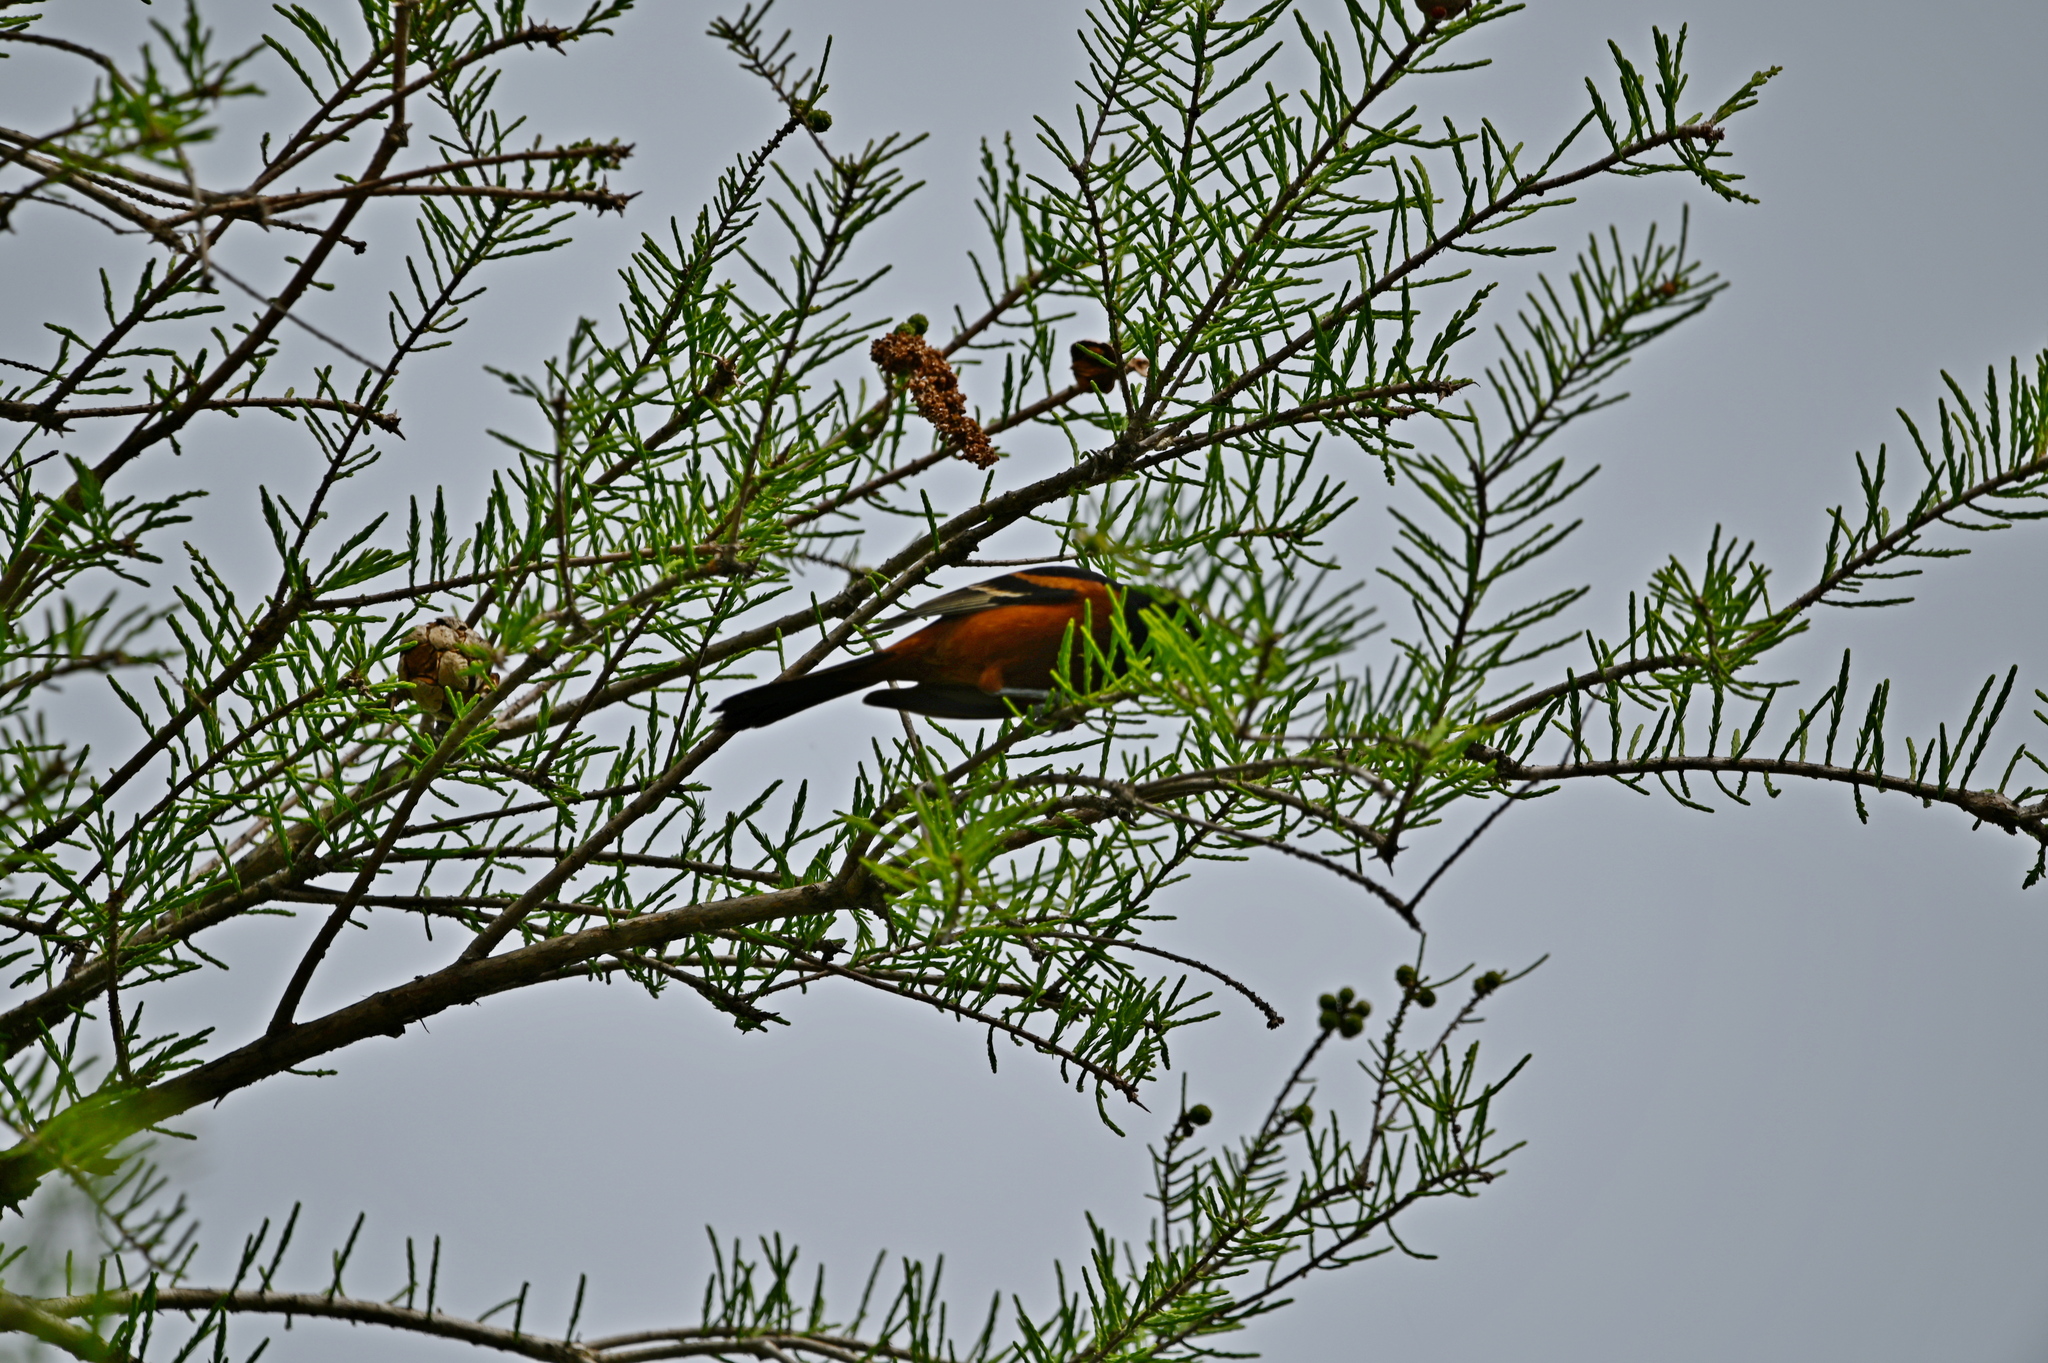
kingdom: Animalia
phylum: Chordata
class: Aves
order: Passeriformes
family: Icteridae
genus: Icterus
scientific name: Icterus spurius
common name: Orchard oriole
